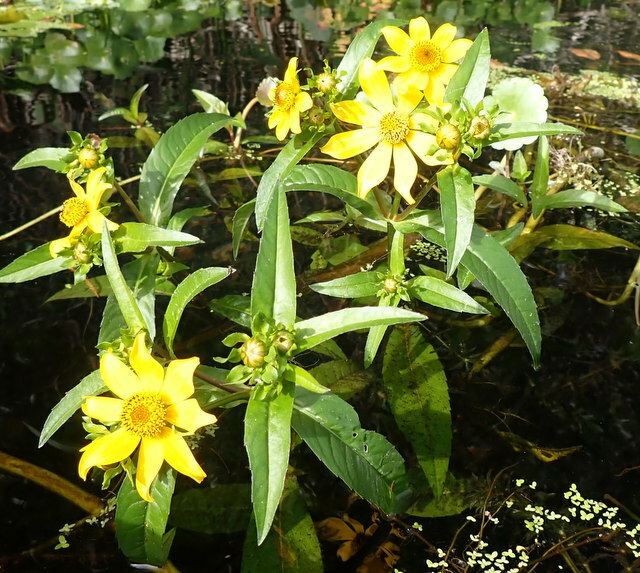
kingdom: Plantae
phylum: Tracheophyta
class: Magnoliopsida
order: Asterales
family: Asteraceae
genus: Bidens
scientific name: Bidens laevis
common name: Larger bur-marigold
